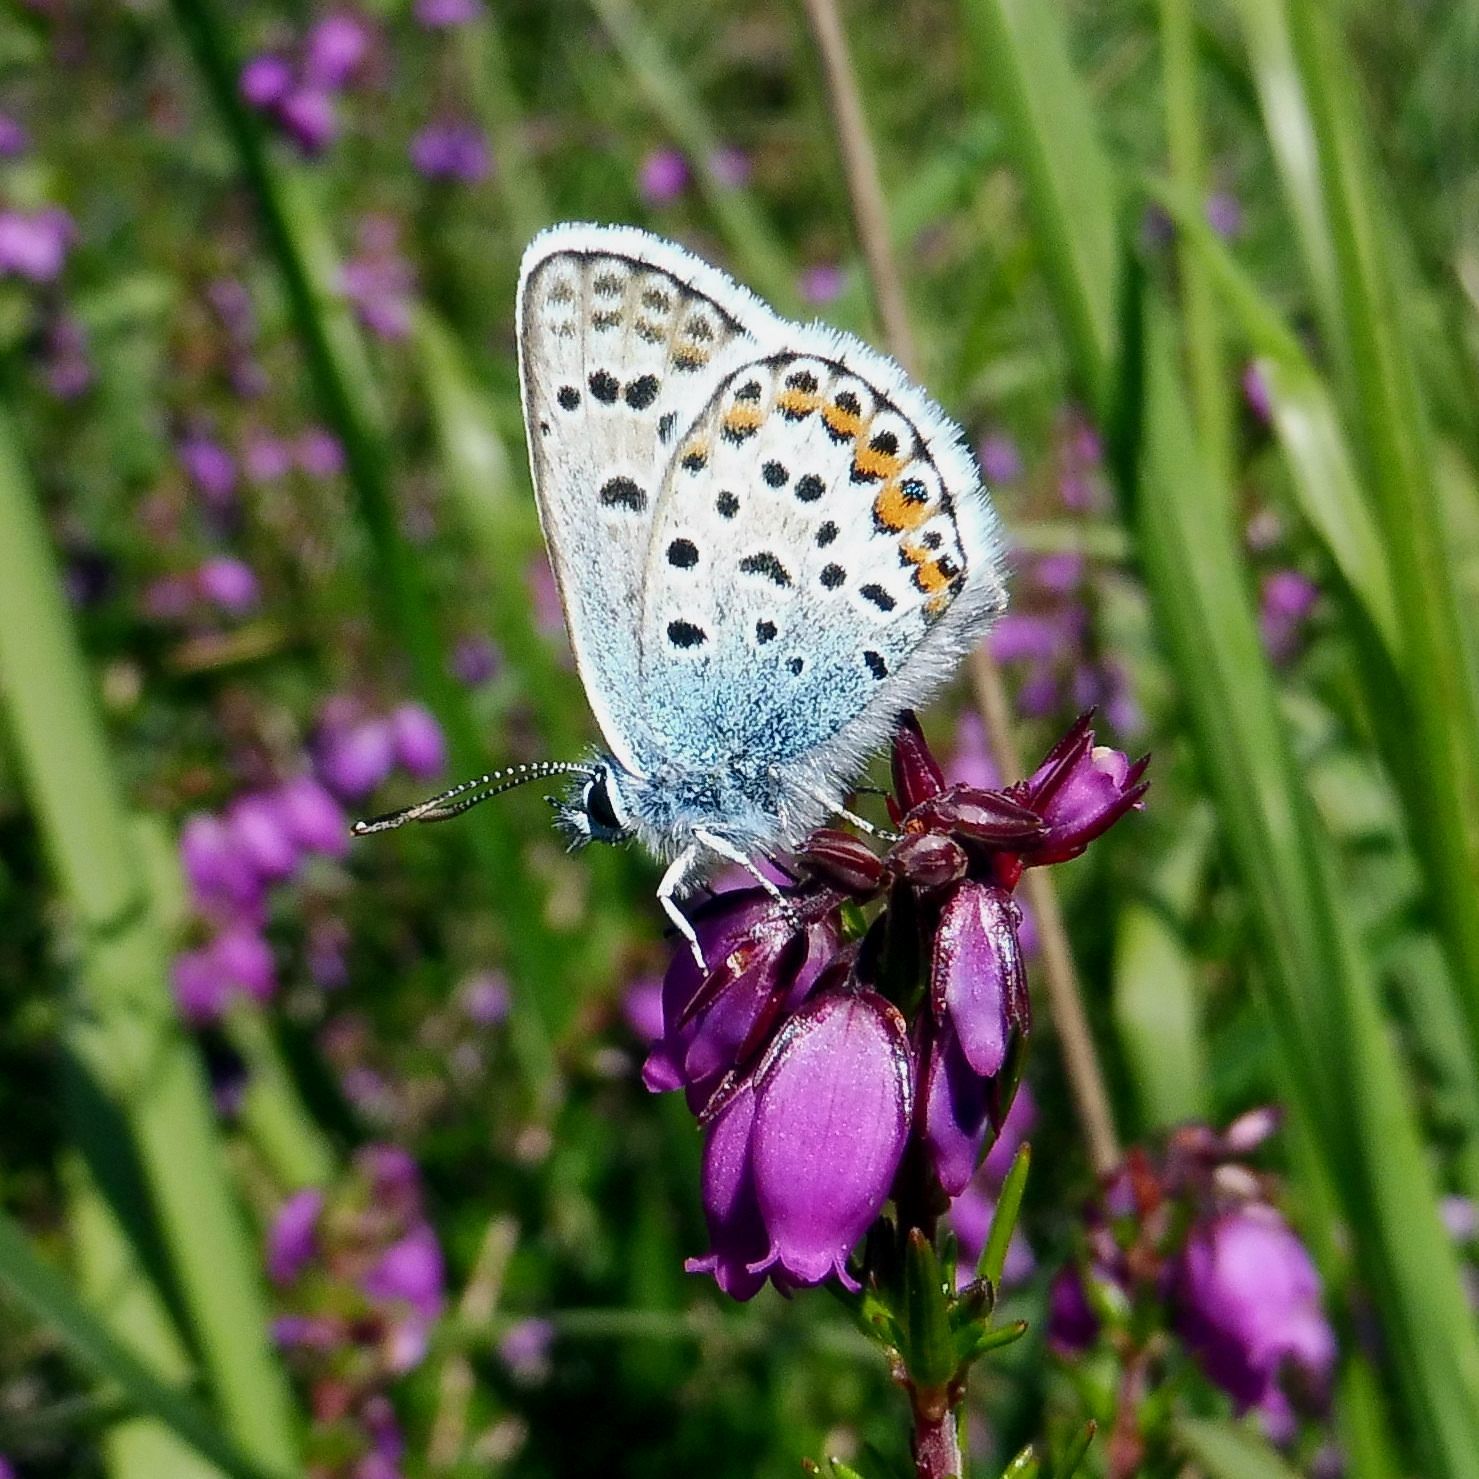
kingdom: Animalia
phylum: Arthropoda
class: Insecta
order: Lepidoptera
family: Lycaenidae
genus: Plebejus
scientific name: Plebejus argus
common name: Silver-studded blue
